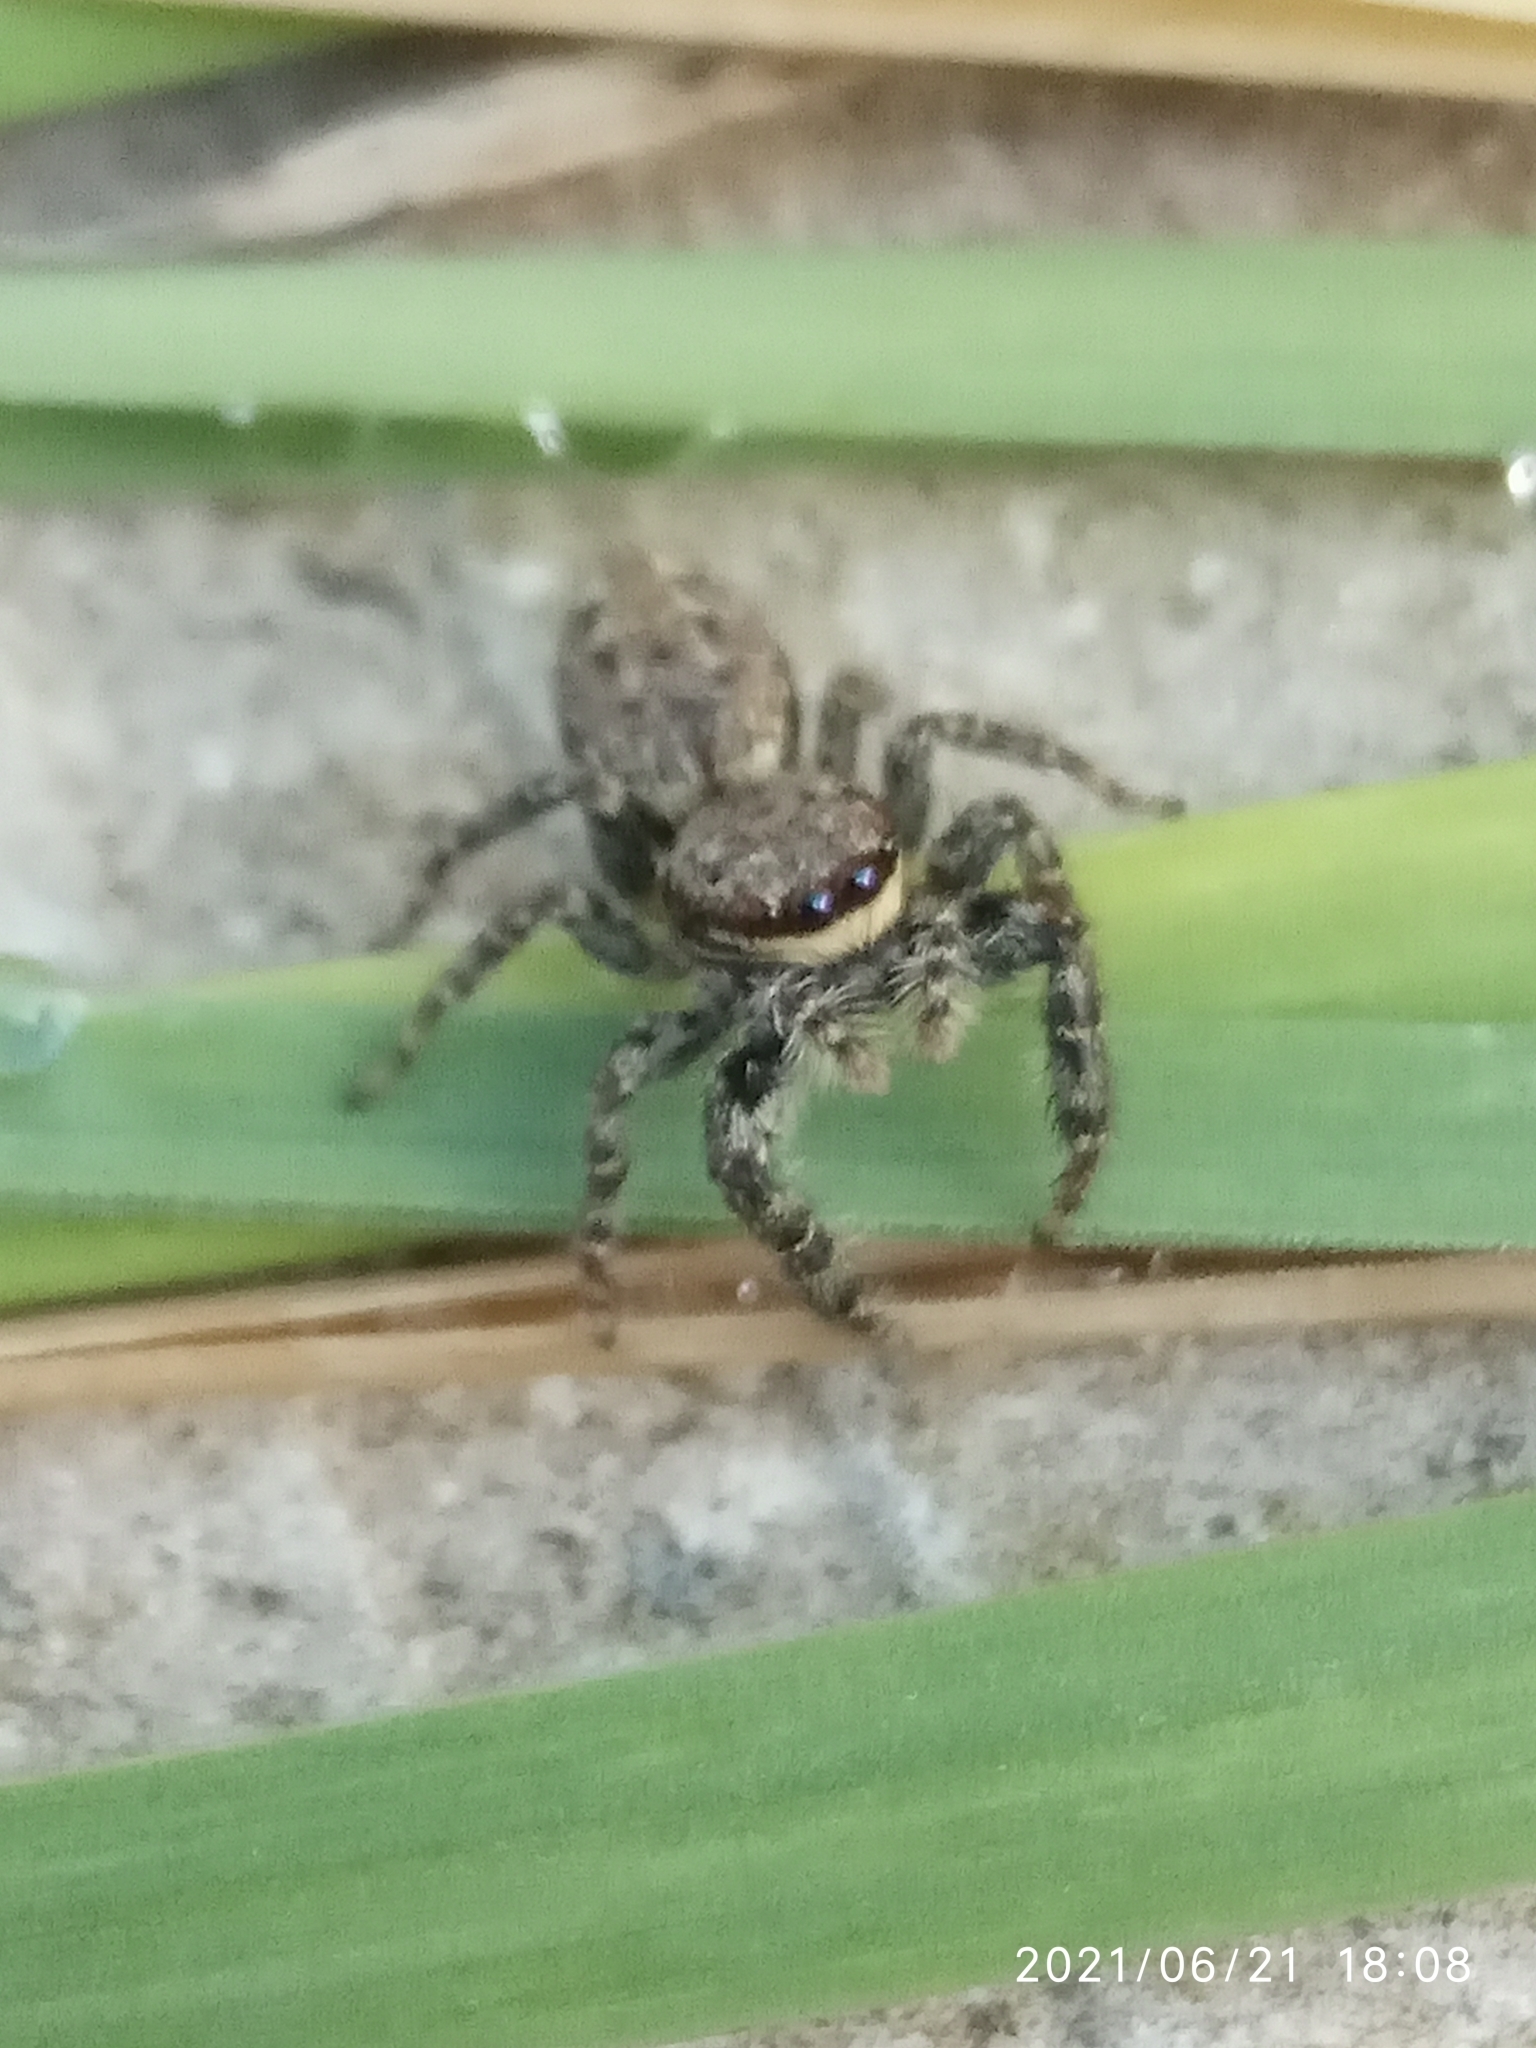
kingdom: Animalia
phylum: Arthropoda
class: Arachnida
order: Araneae
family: Salticidae
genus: Marpissa
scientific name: Marpissa muscosa
